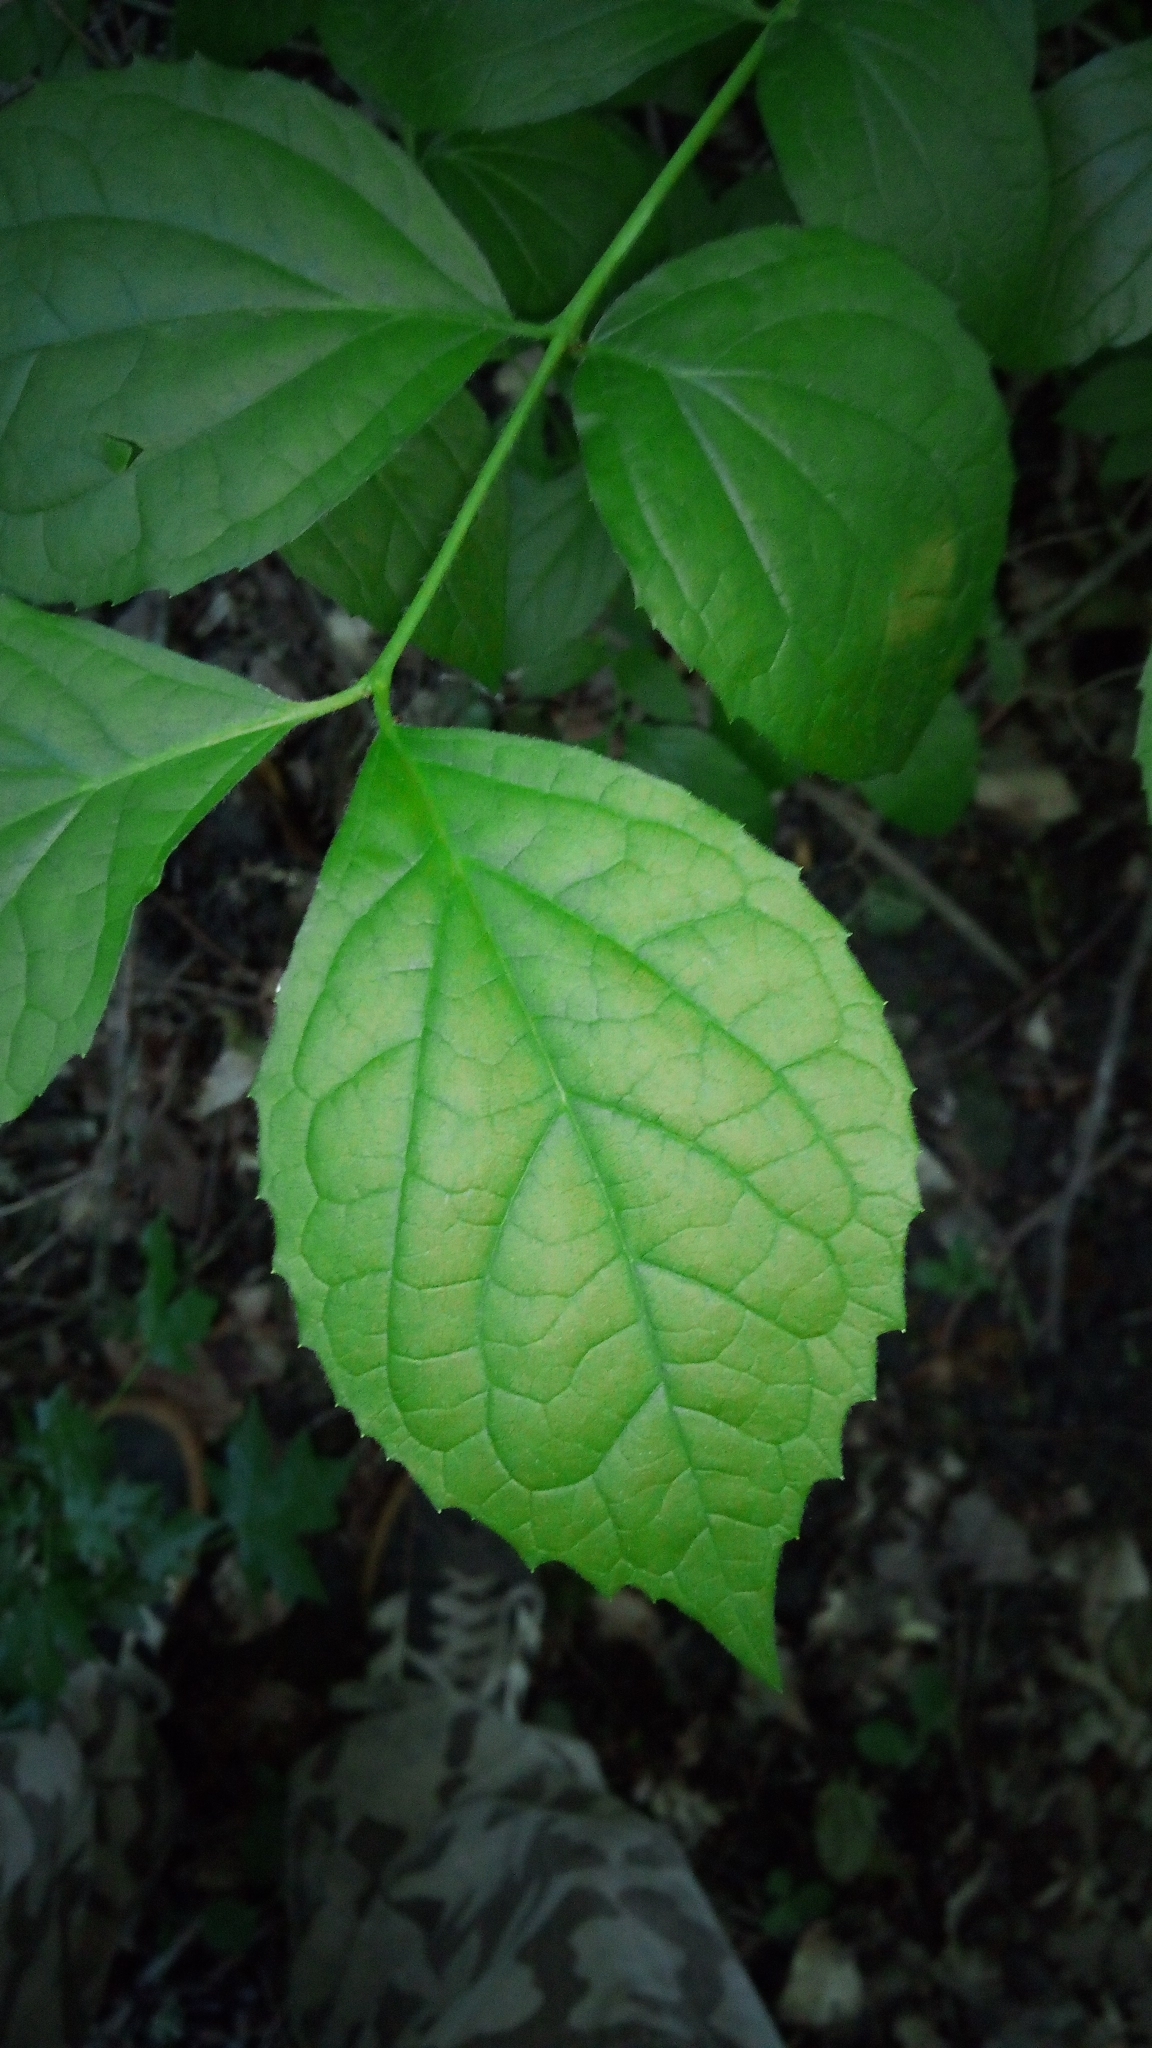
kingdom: Plantae
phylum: Tracheophyta
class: Magnoliopsida
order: Cornales
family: Hydrangeaceae
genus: Philadelphus
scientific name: Philadelphus coronarius
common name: Mock orange
